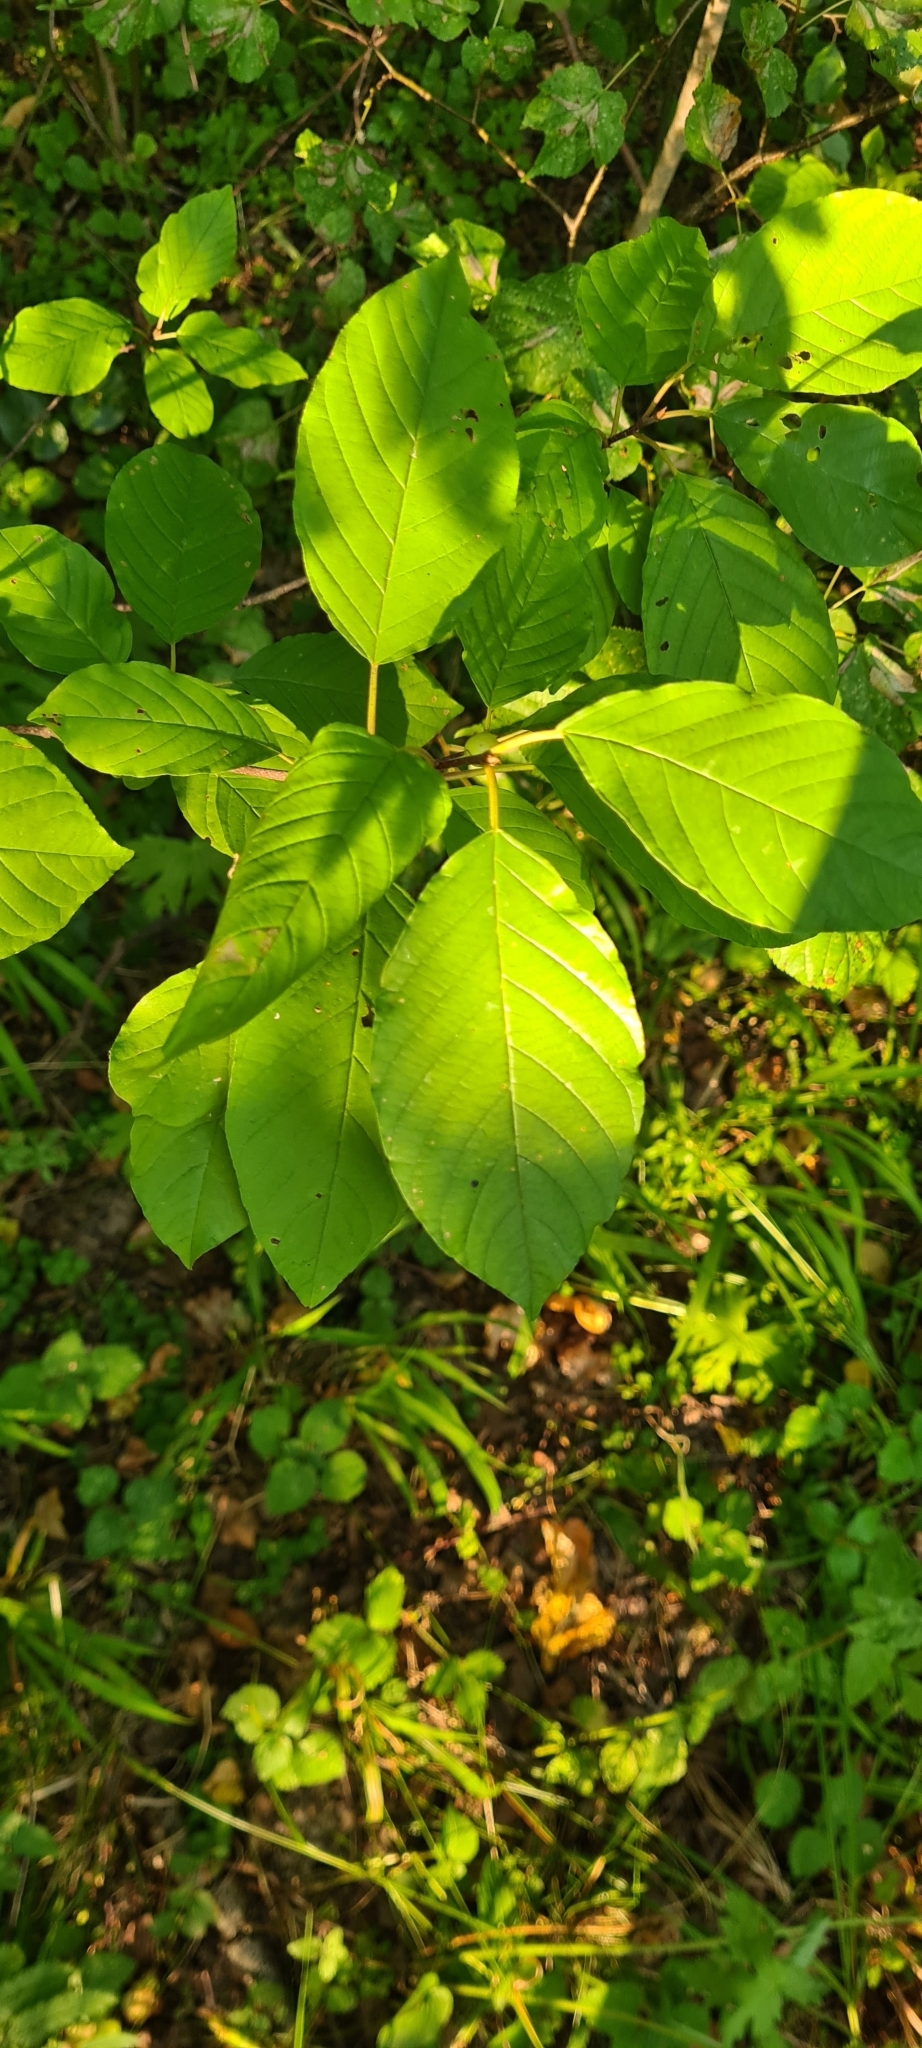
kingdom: Plantae
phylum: Tracheophyta
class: Magnoliopsida
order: Rosales
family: Rhamnaceae
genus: Frangula
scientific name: Frangula alnus
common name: Alder buckthorn
